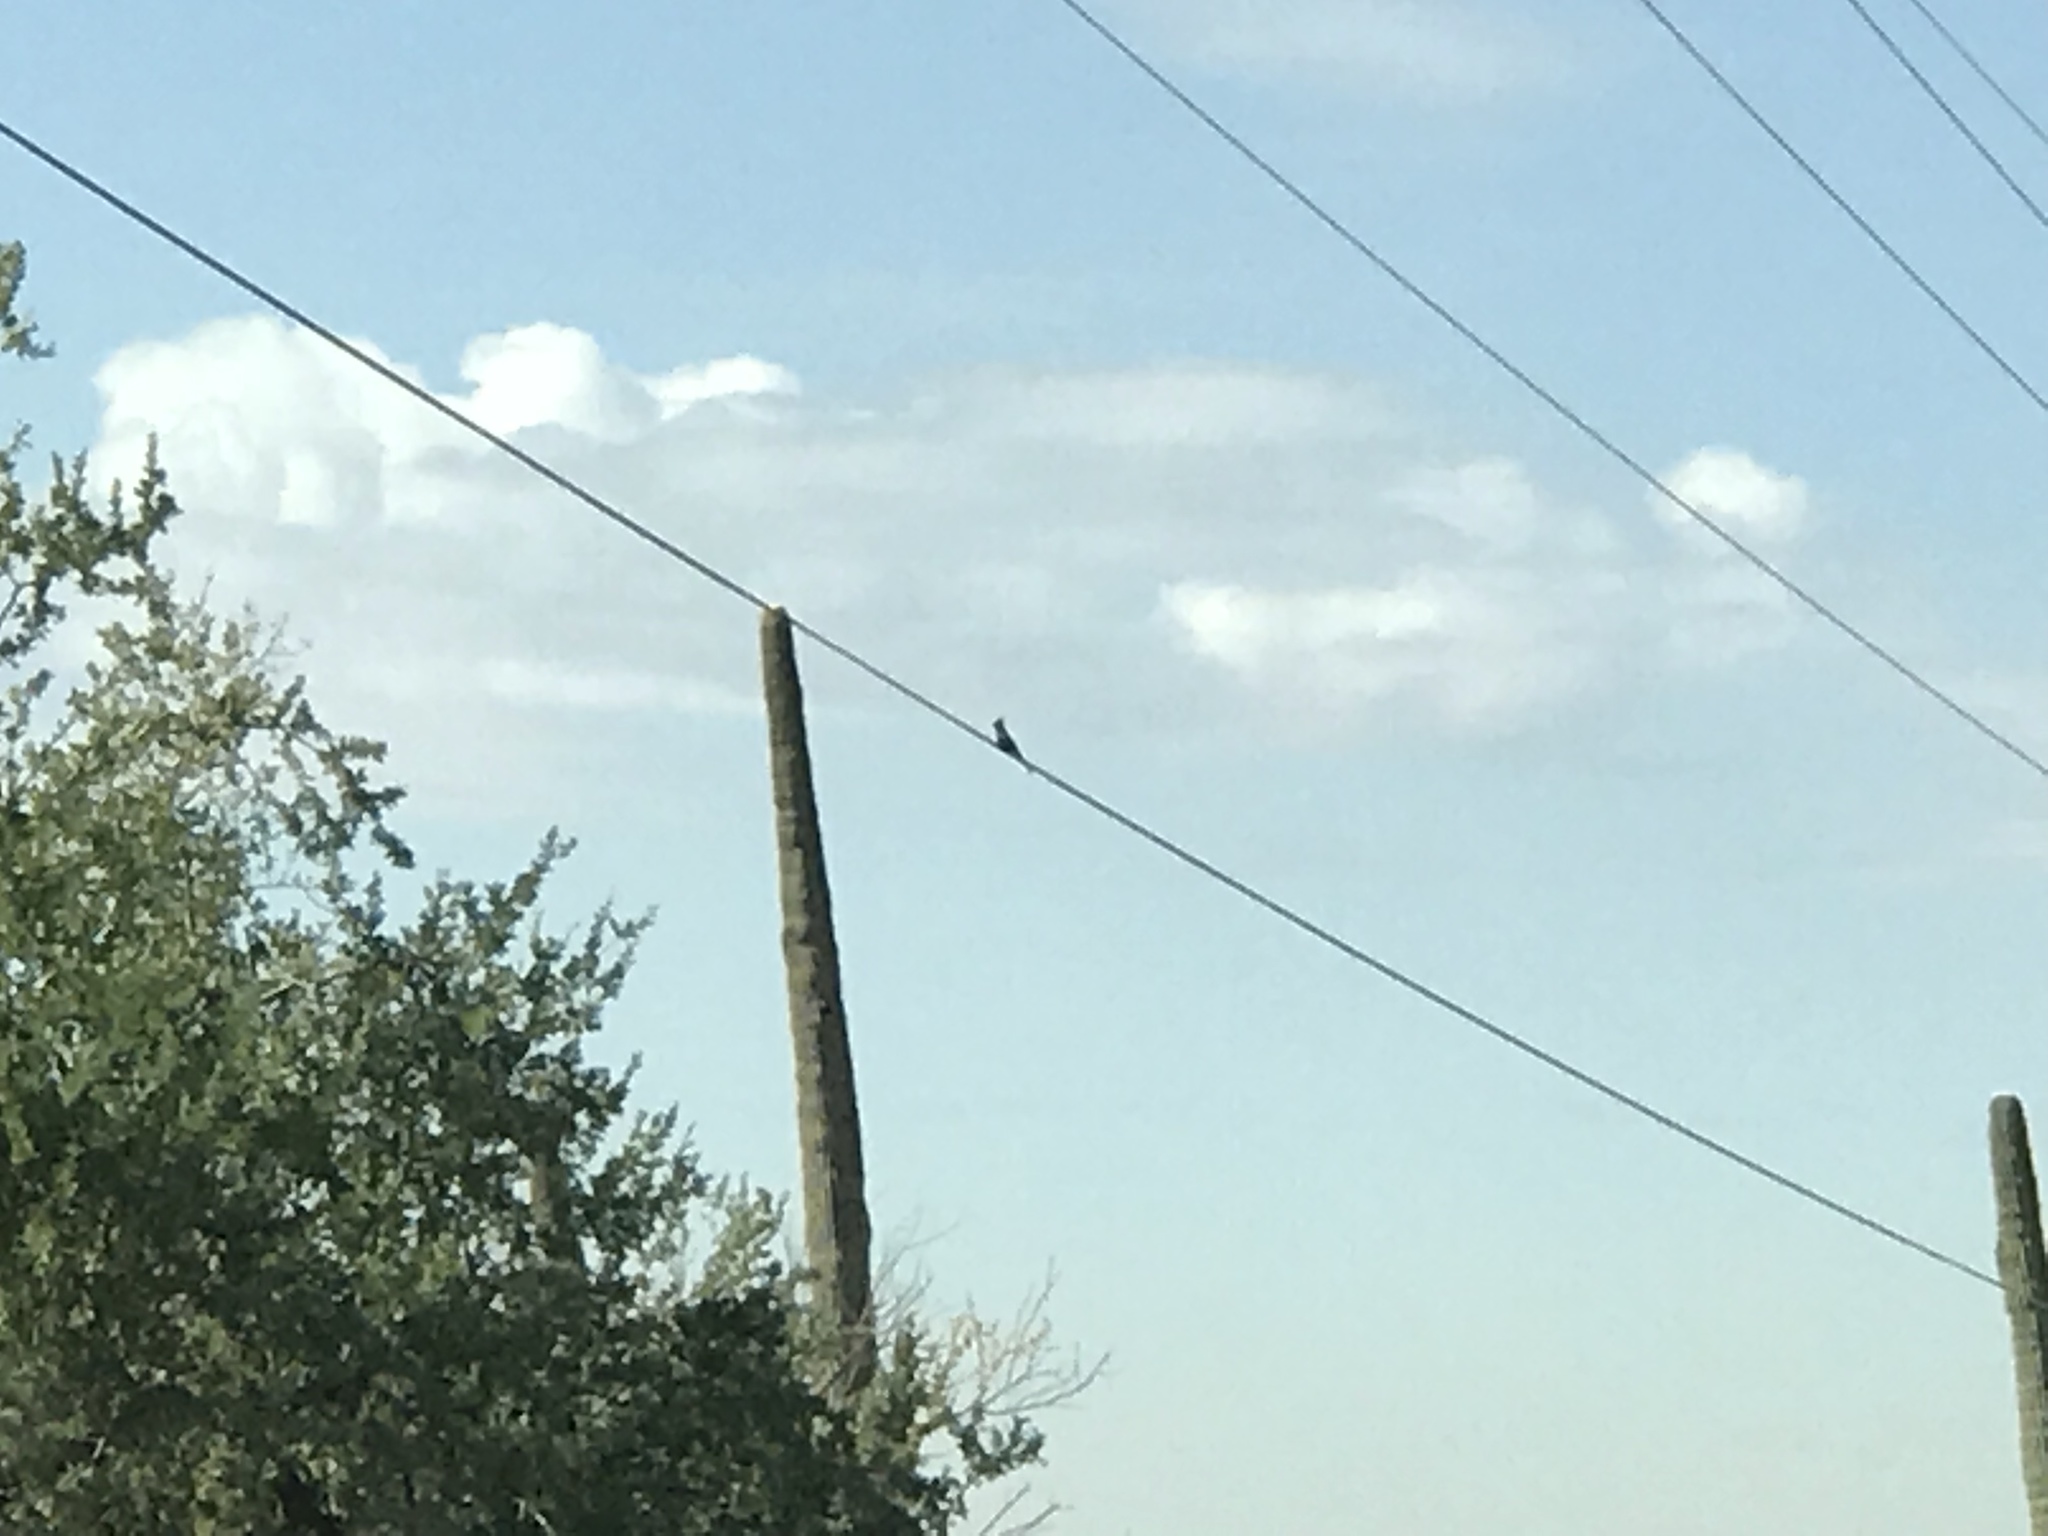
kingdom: Animalia
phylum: Chordata
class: Aves
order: Passeriformes
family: Ptilogonatidae
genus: Phainopepla
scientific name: Phainopepla nitens
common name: Phainopepla
